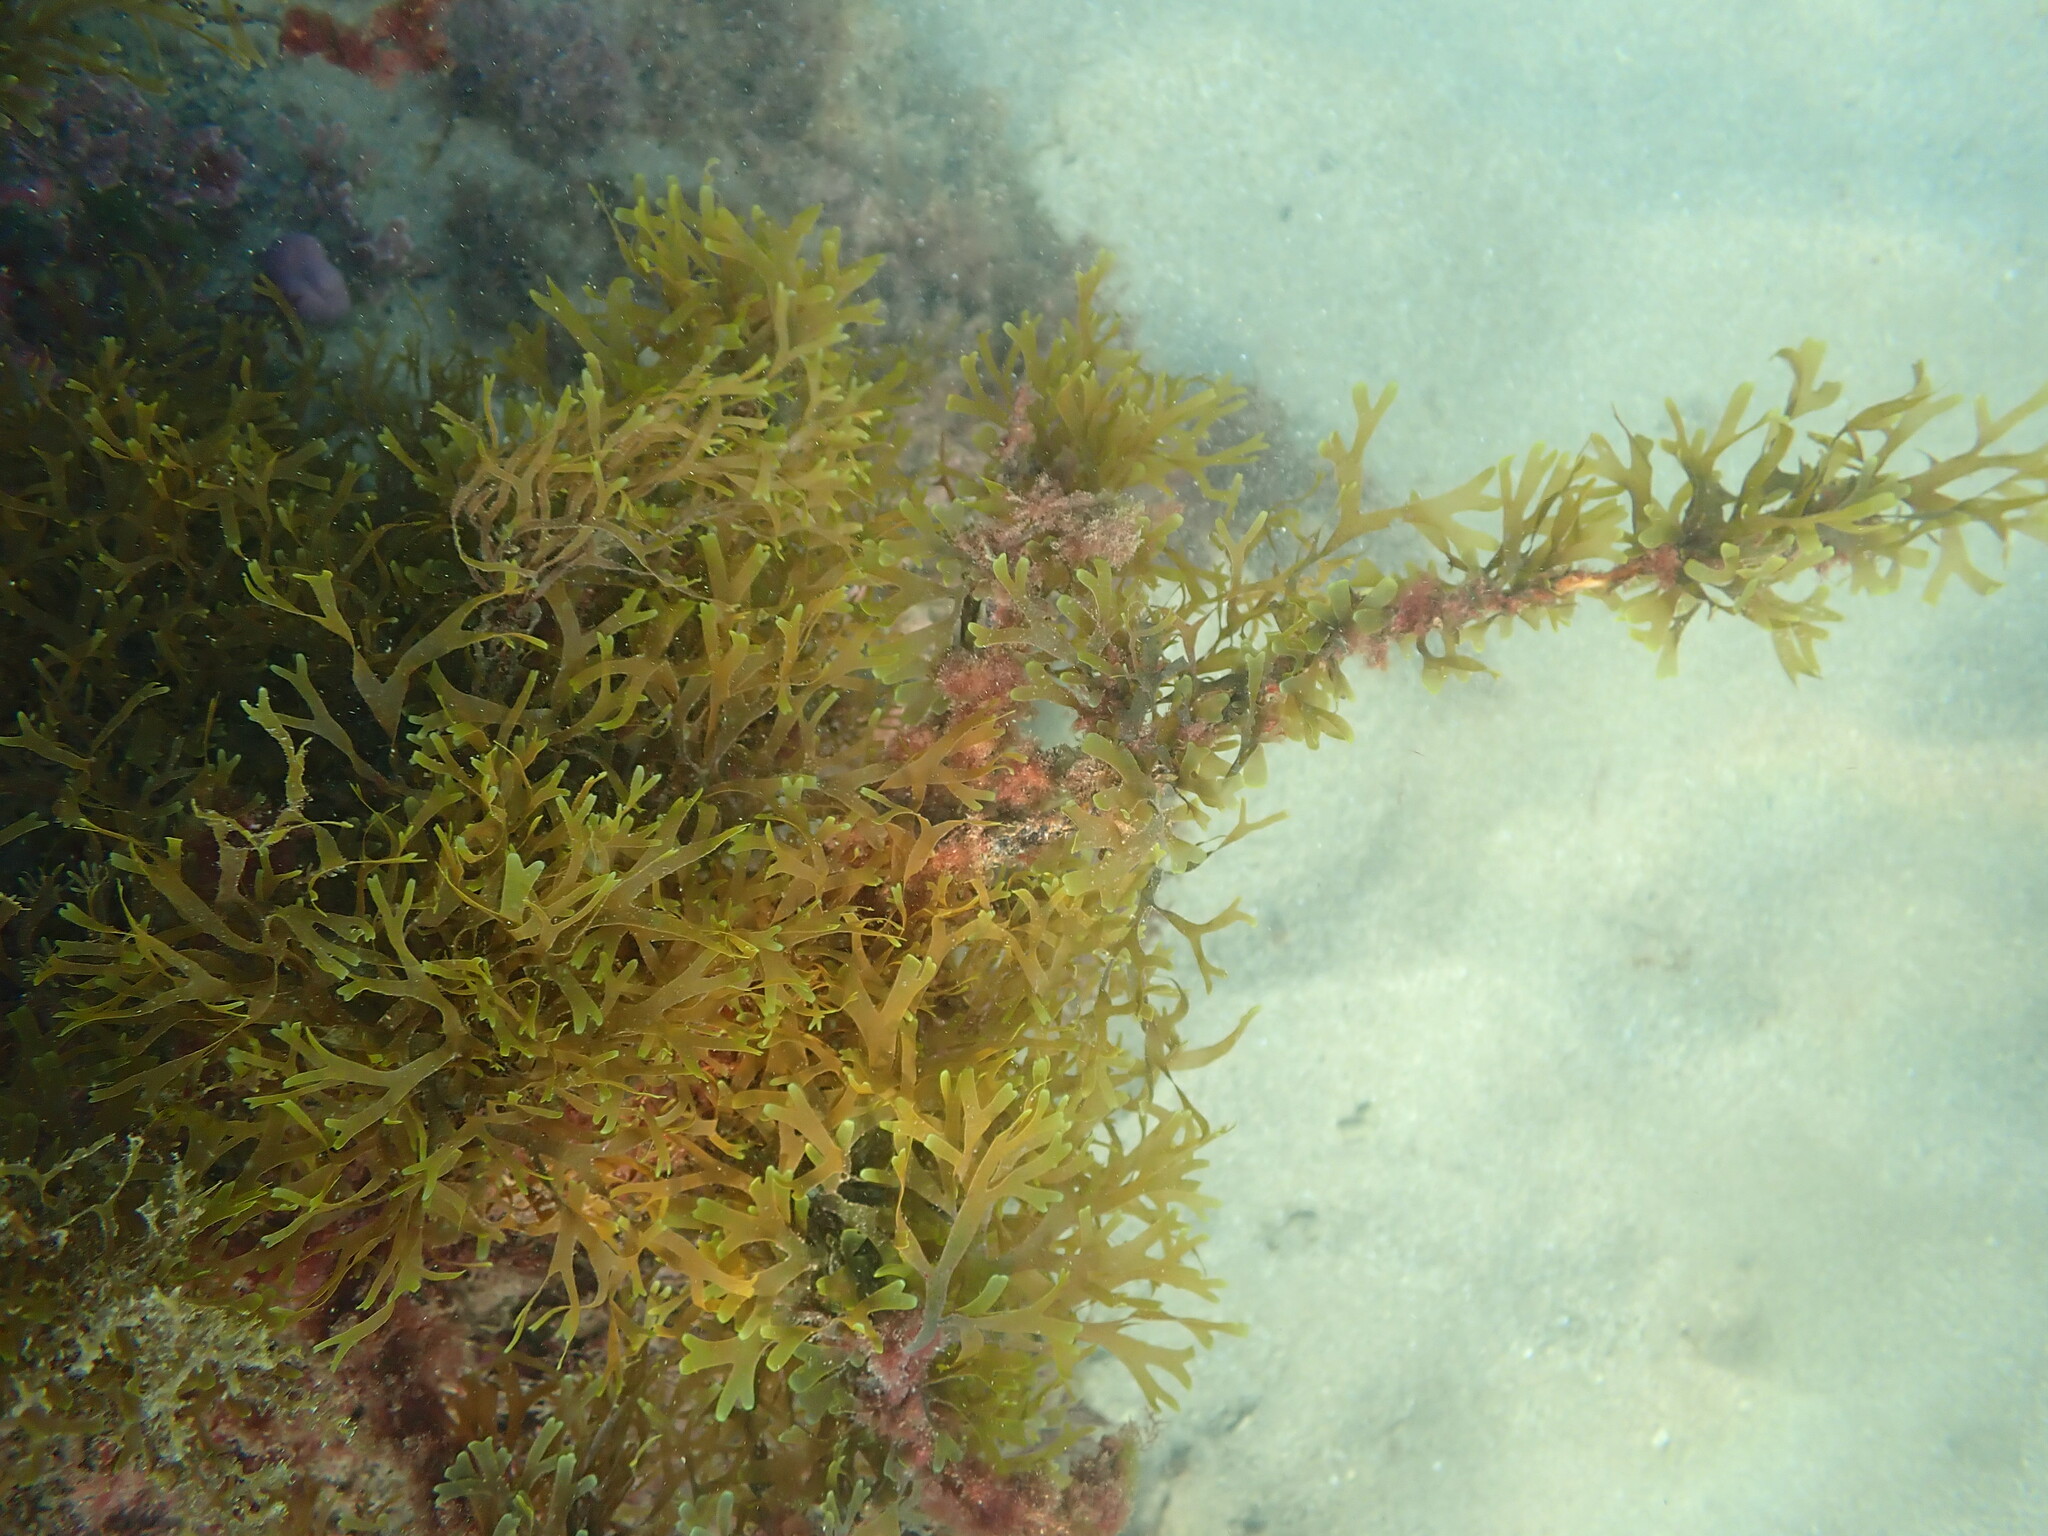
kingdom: Chromista
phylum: Ochrophyta
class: Phaeophyceae
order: Dictyotales
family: Dictyotaceae
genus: Dictyota
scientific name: Dictyota dichotoma
